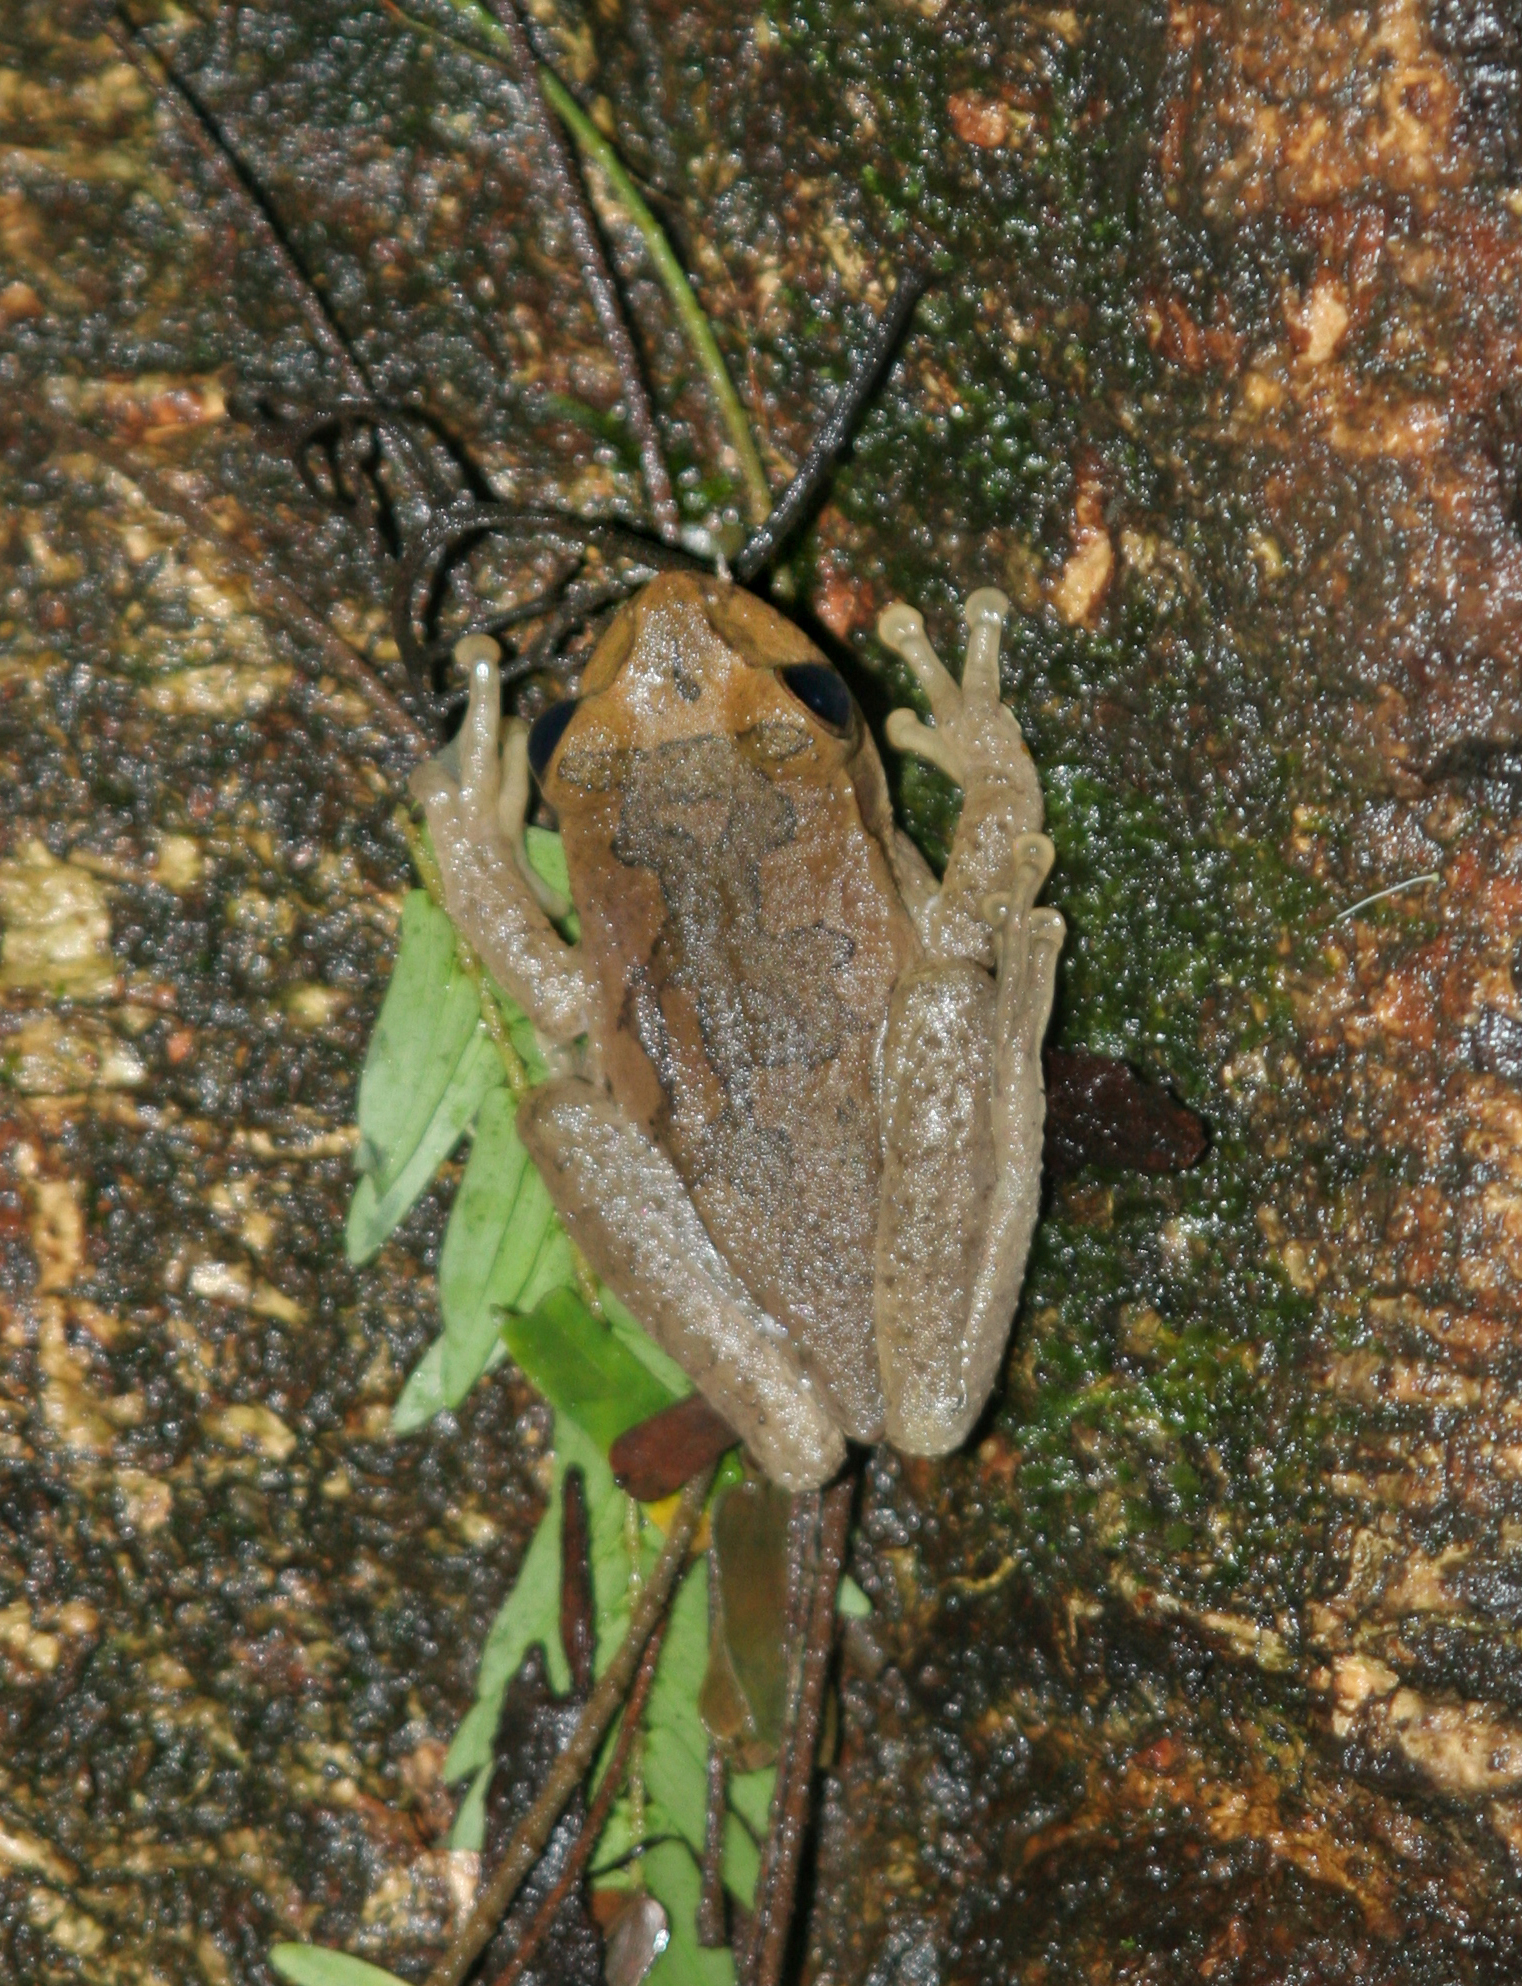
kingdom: Animalia
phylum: Chordata
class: Amphibia
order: Anura
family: Hylidae
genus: Smilisca
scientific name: Smilisca baudinii
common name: Mexican smilisca
